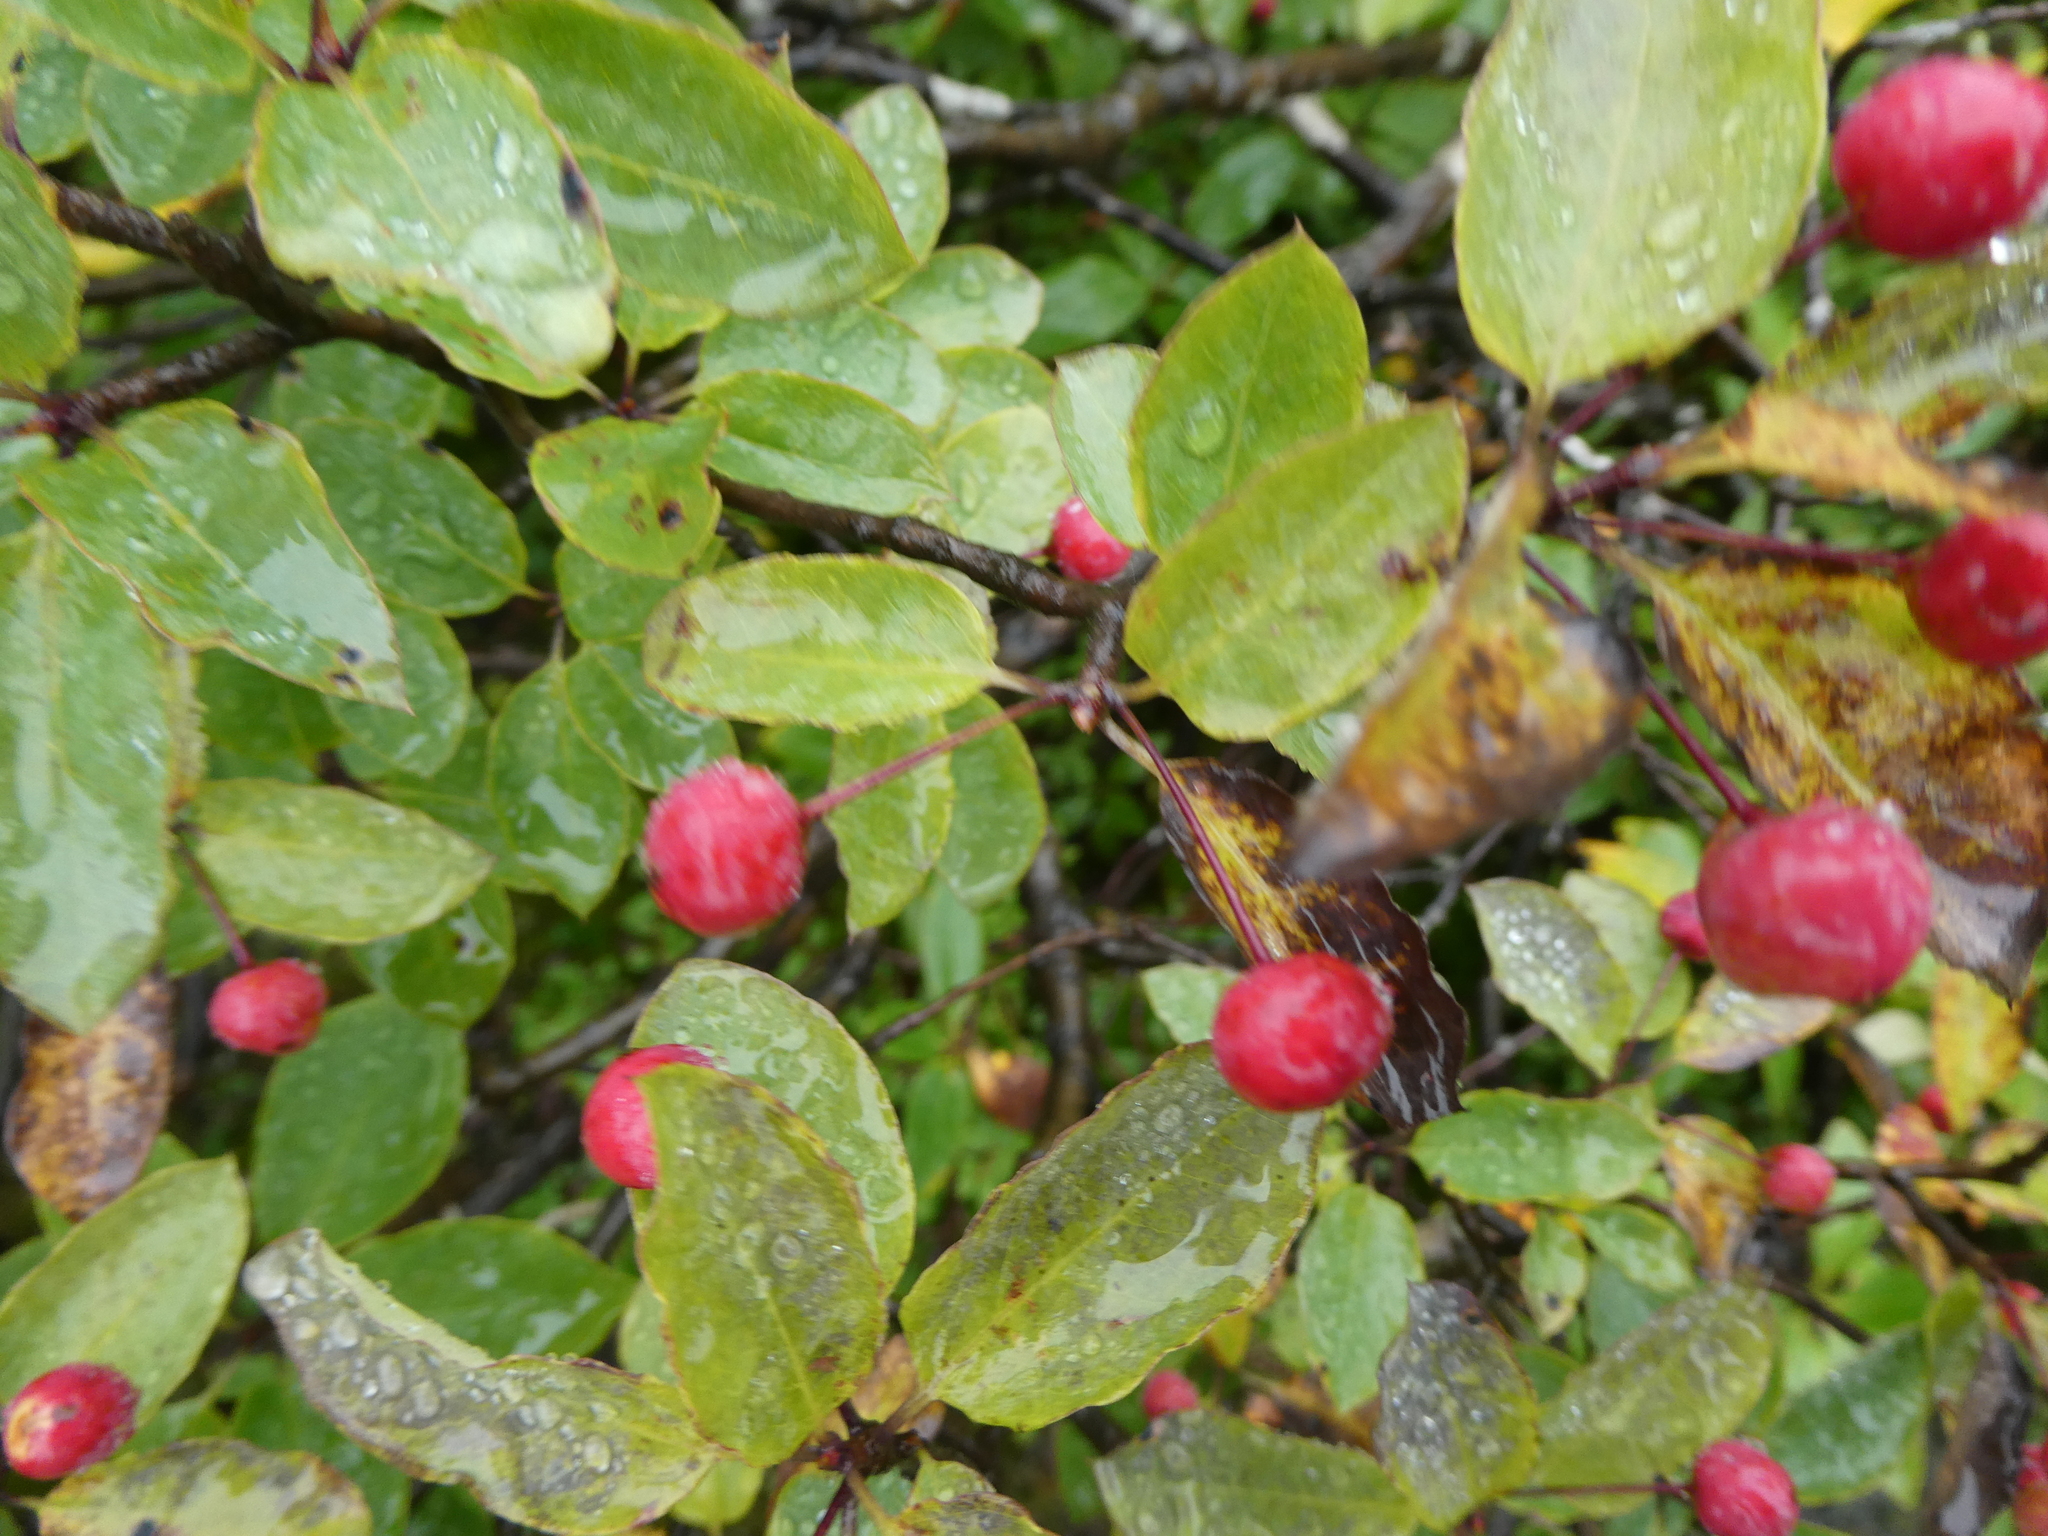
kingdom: Plantae
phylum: Tracheophyta
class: Magnoliopsida
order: Aquifoliales
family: Aquifoliaceae
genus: Ilex
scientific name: Ilex mucronata
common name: Catberry
